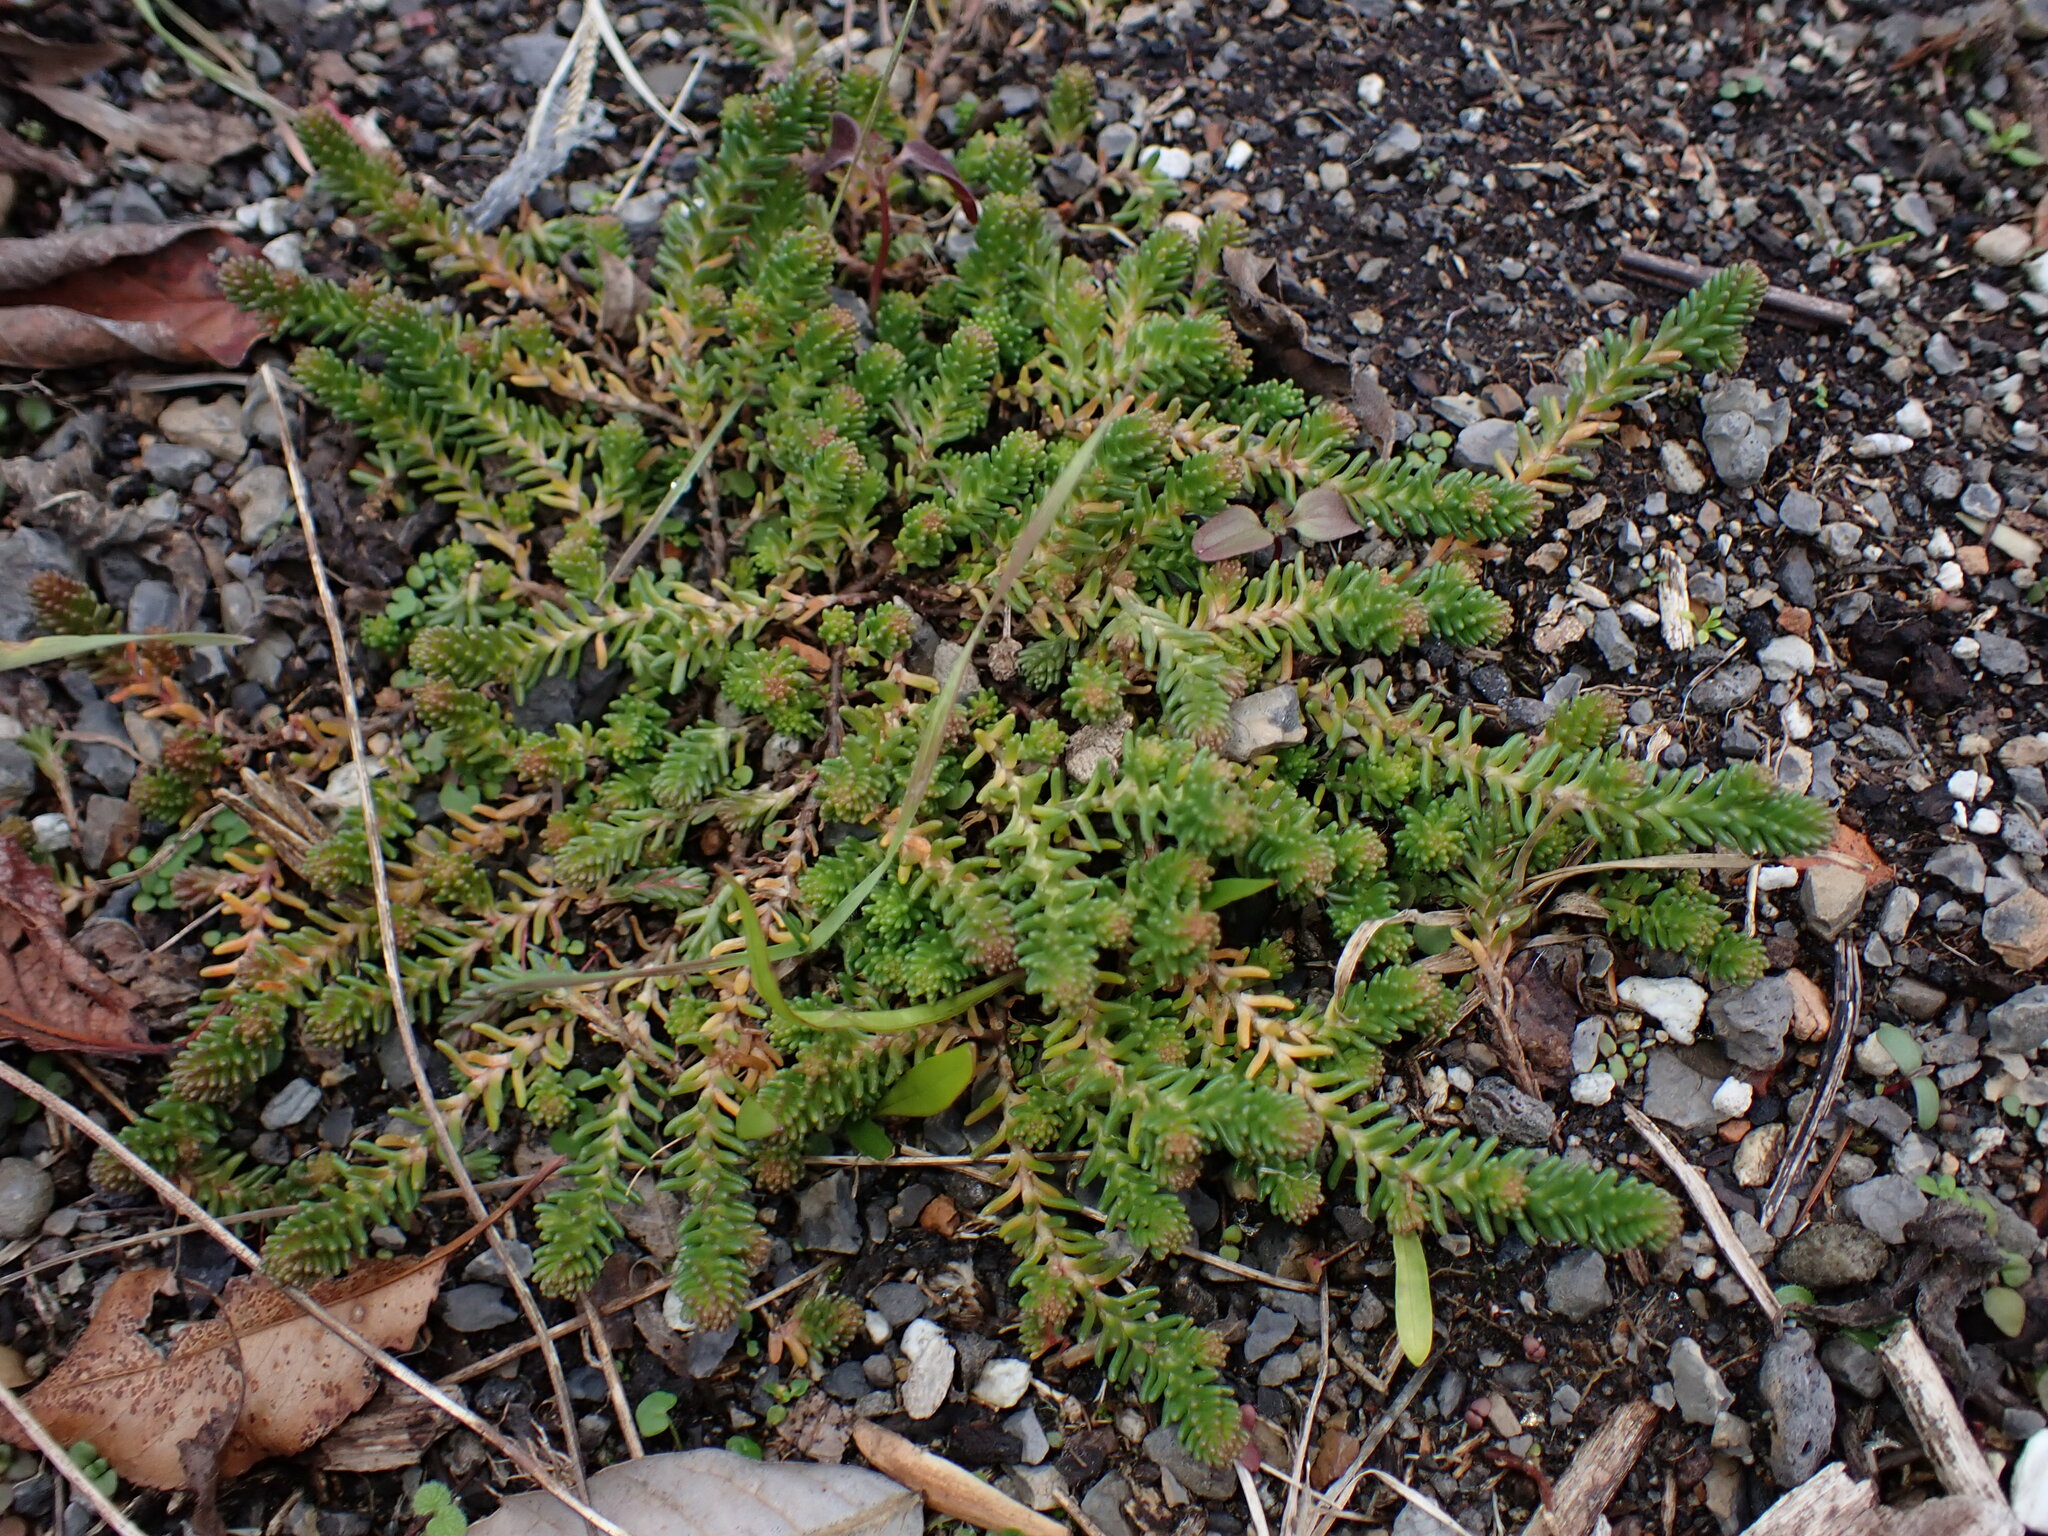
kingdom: Plantae
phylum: Tracheophyta
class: Magnoliopsida
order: Saxifragales
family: Crassulaceae
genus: Sedum
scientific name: Sedum sexangulare
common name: Tasteless stonecrop
